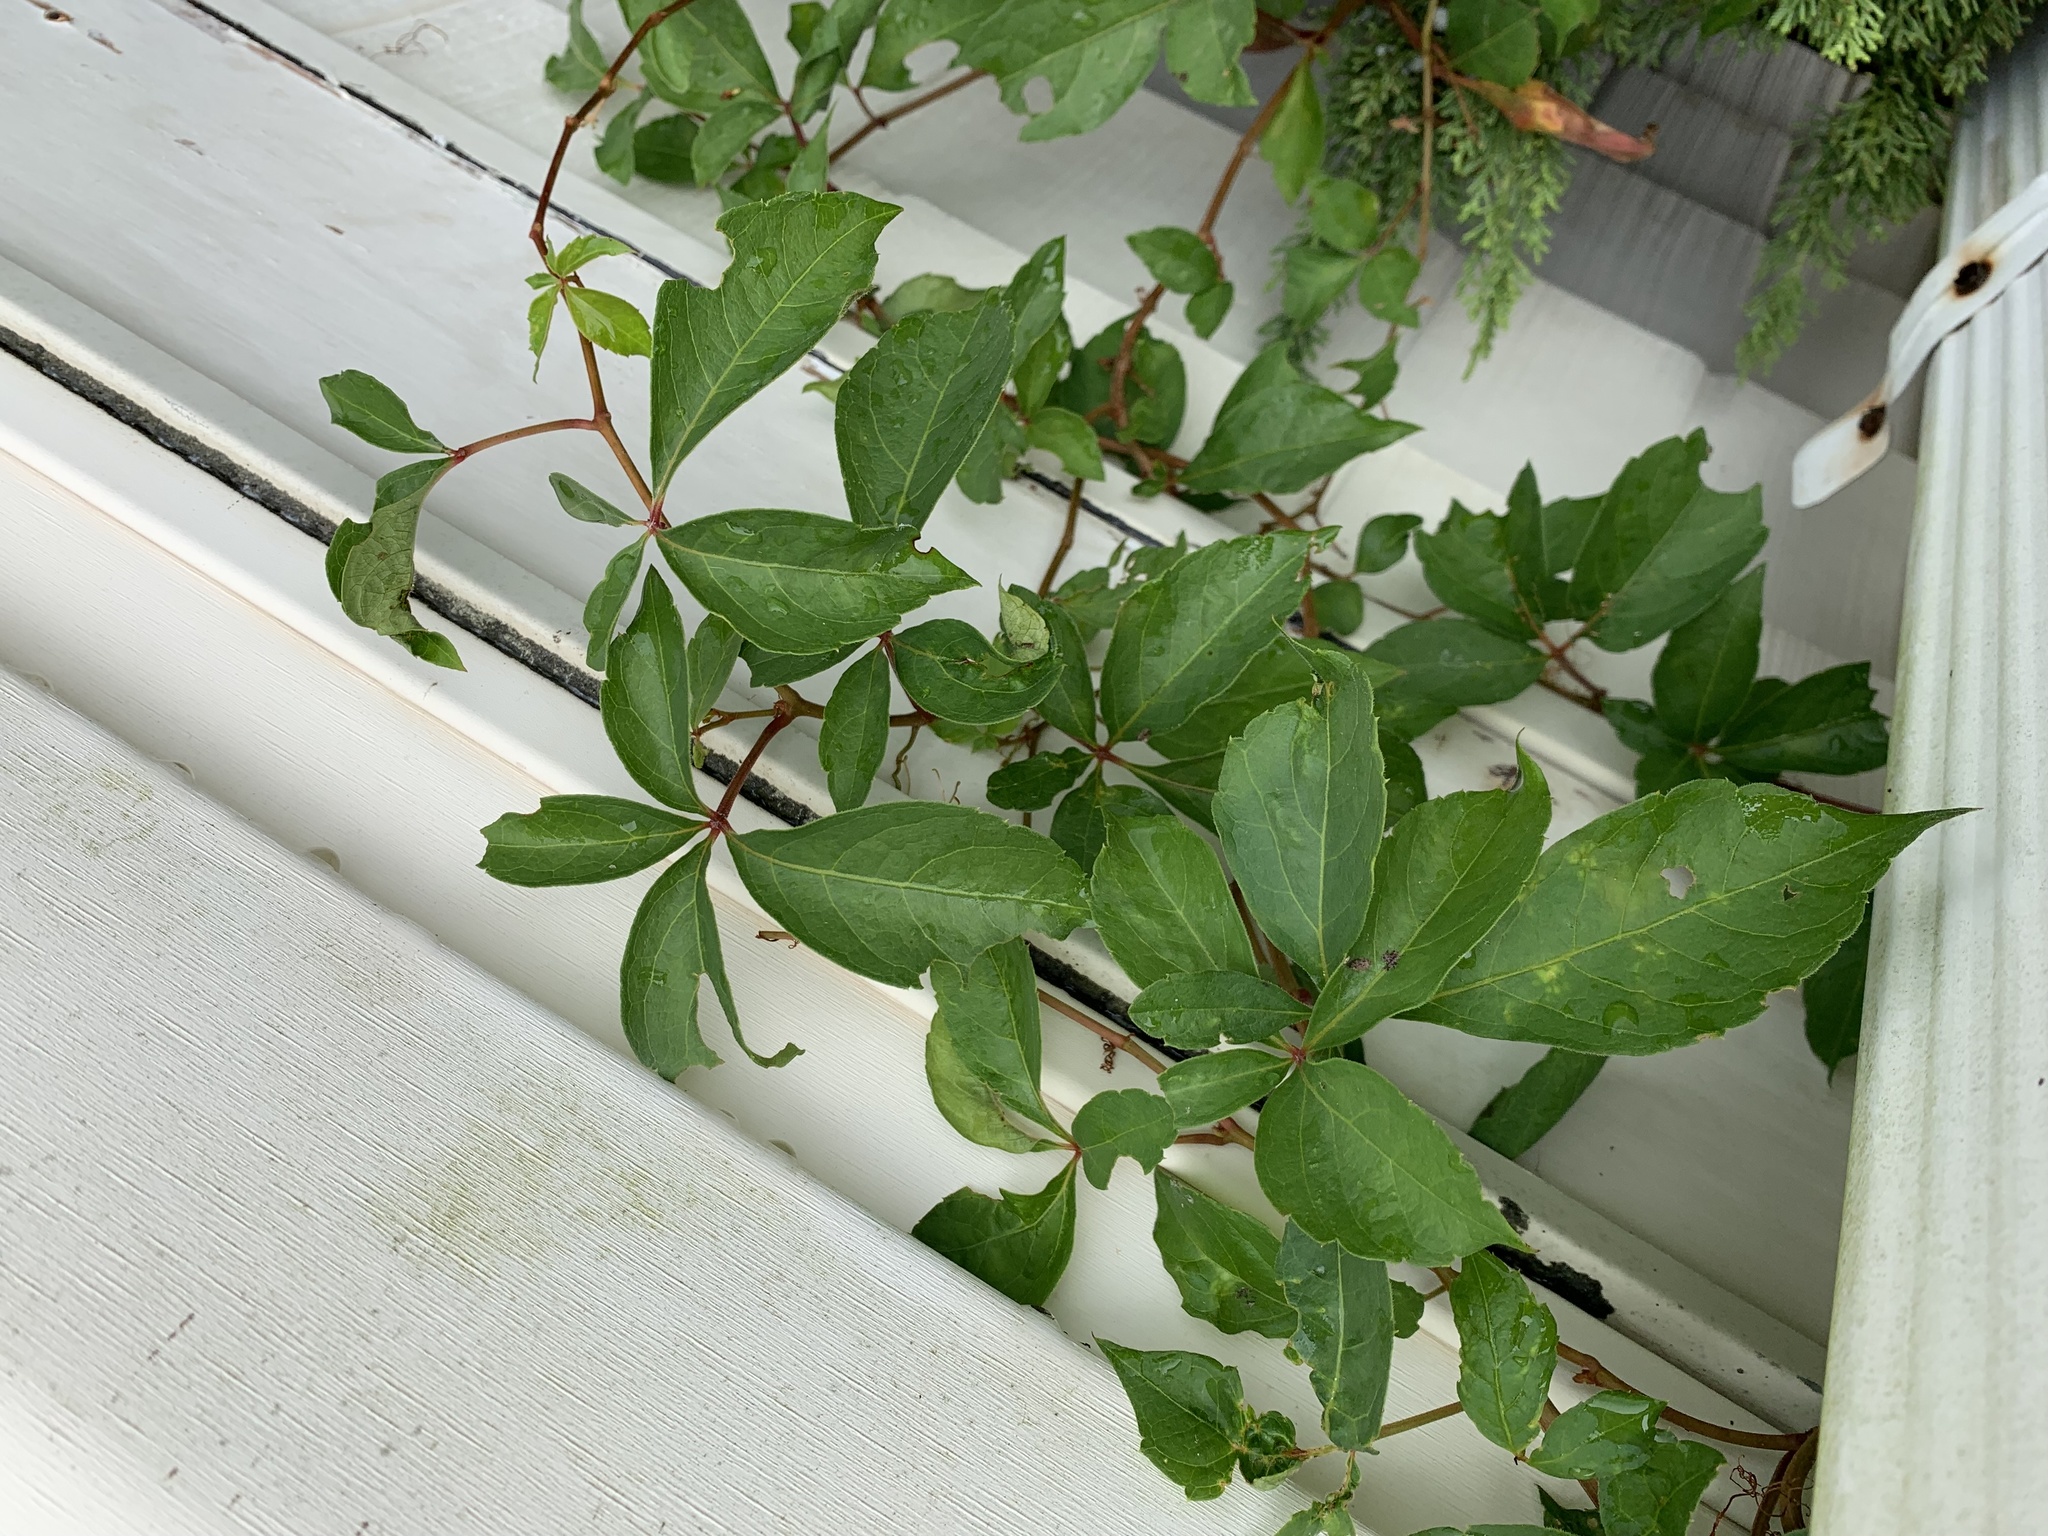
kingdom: Plantae
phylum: Tracheophyta
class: Magnoliopsida
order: Vitales
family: Vitaceae
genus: Parthenocissus
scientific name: Parthenocissus quinquefolia
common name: Virginia-creeper
